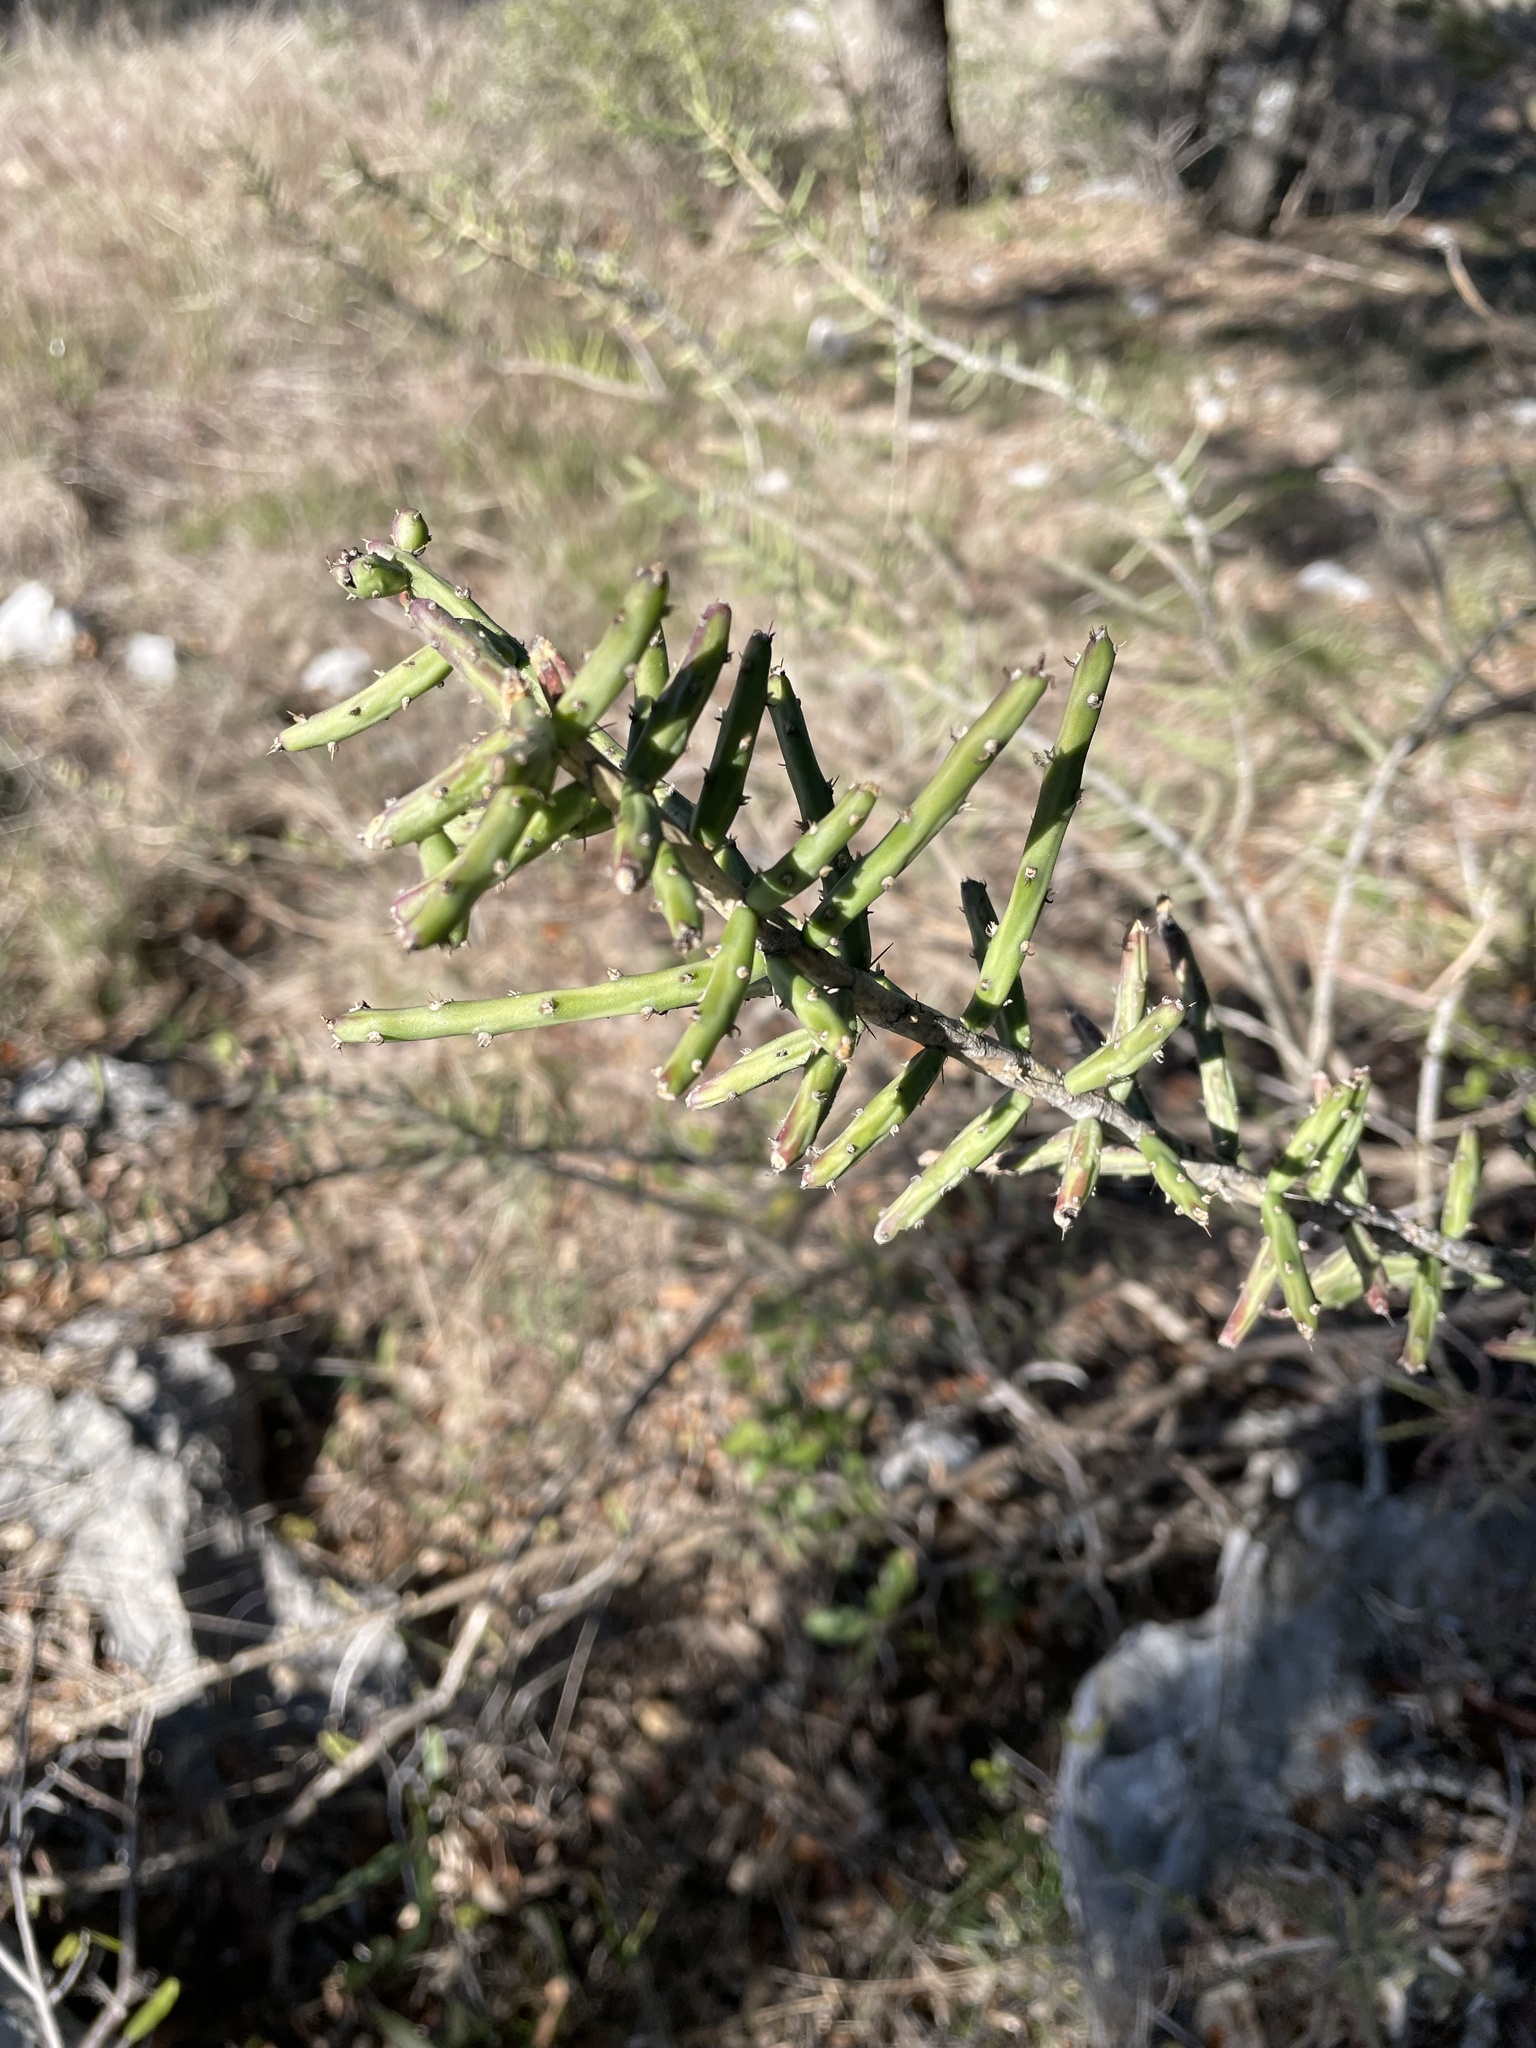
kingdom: Plantae
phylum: Tracheophyta
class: Magnoliopsida
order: Caryophyllales
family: Cactaceae
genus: Cylindropuntia
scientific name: Cylindropuntia leptocaulis
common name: Christmas cactus
